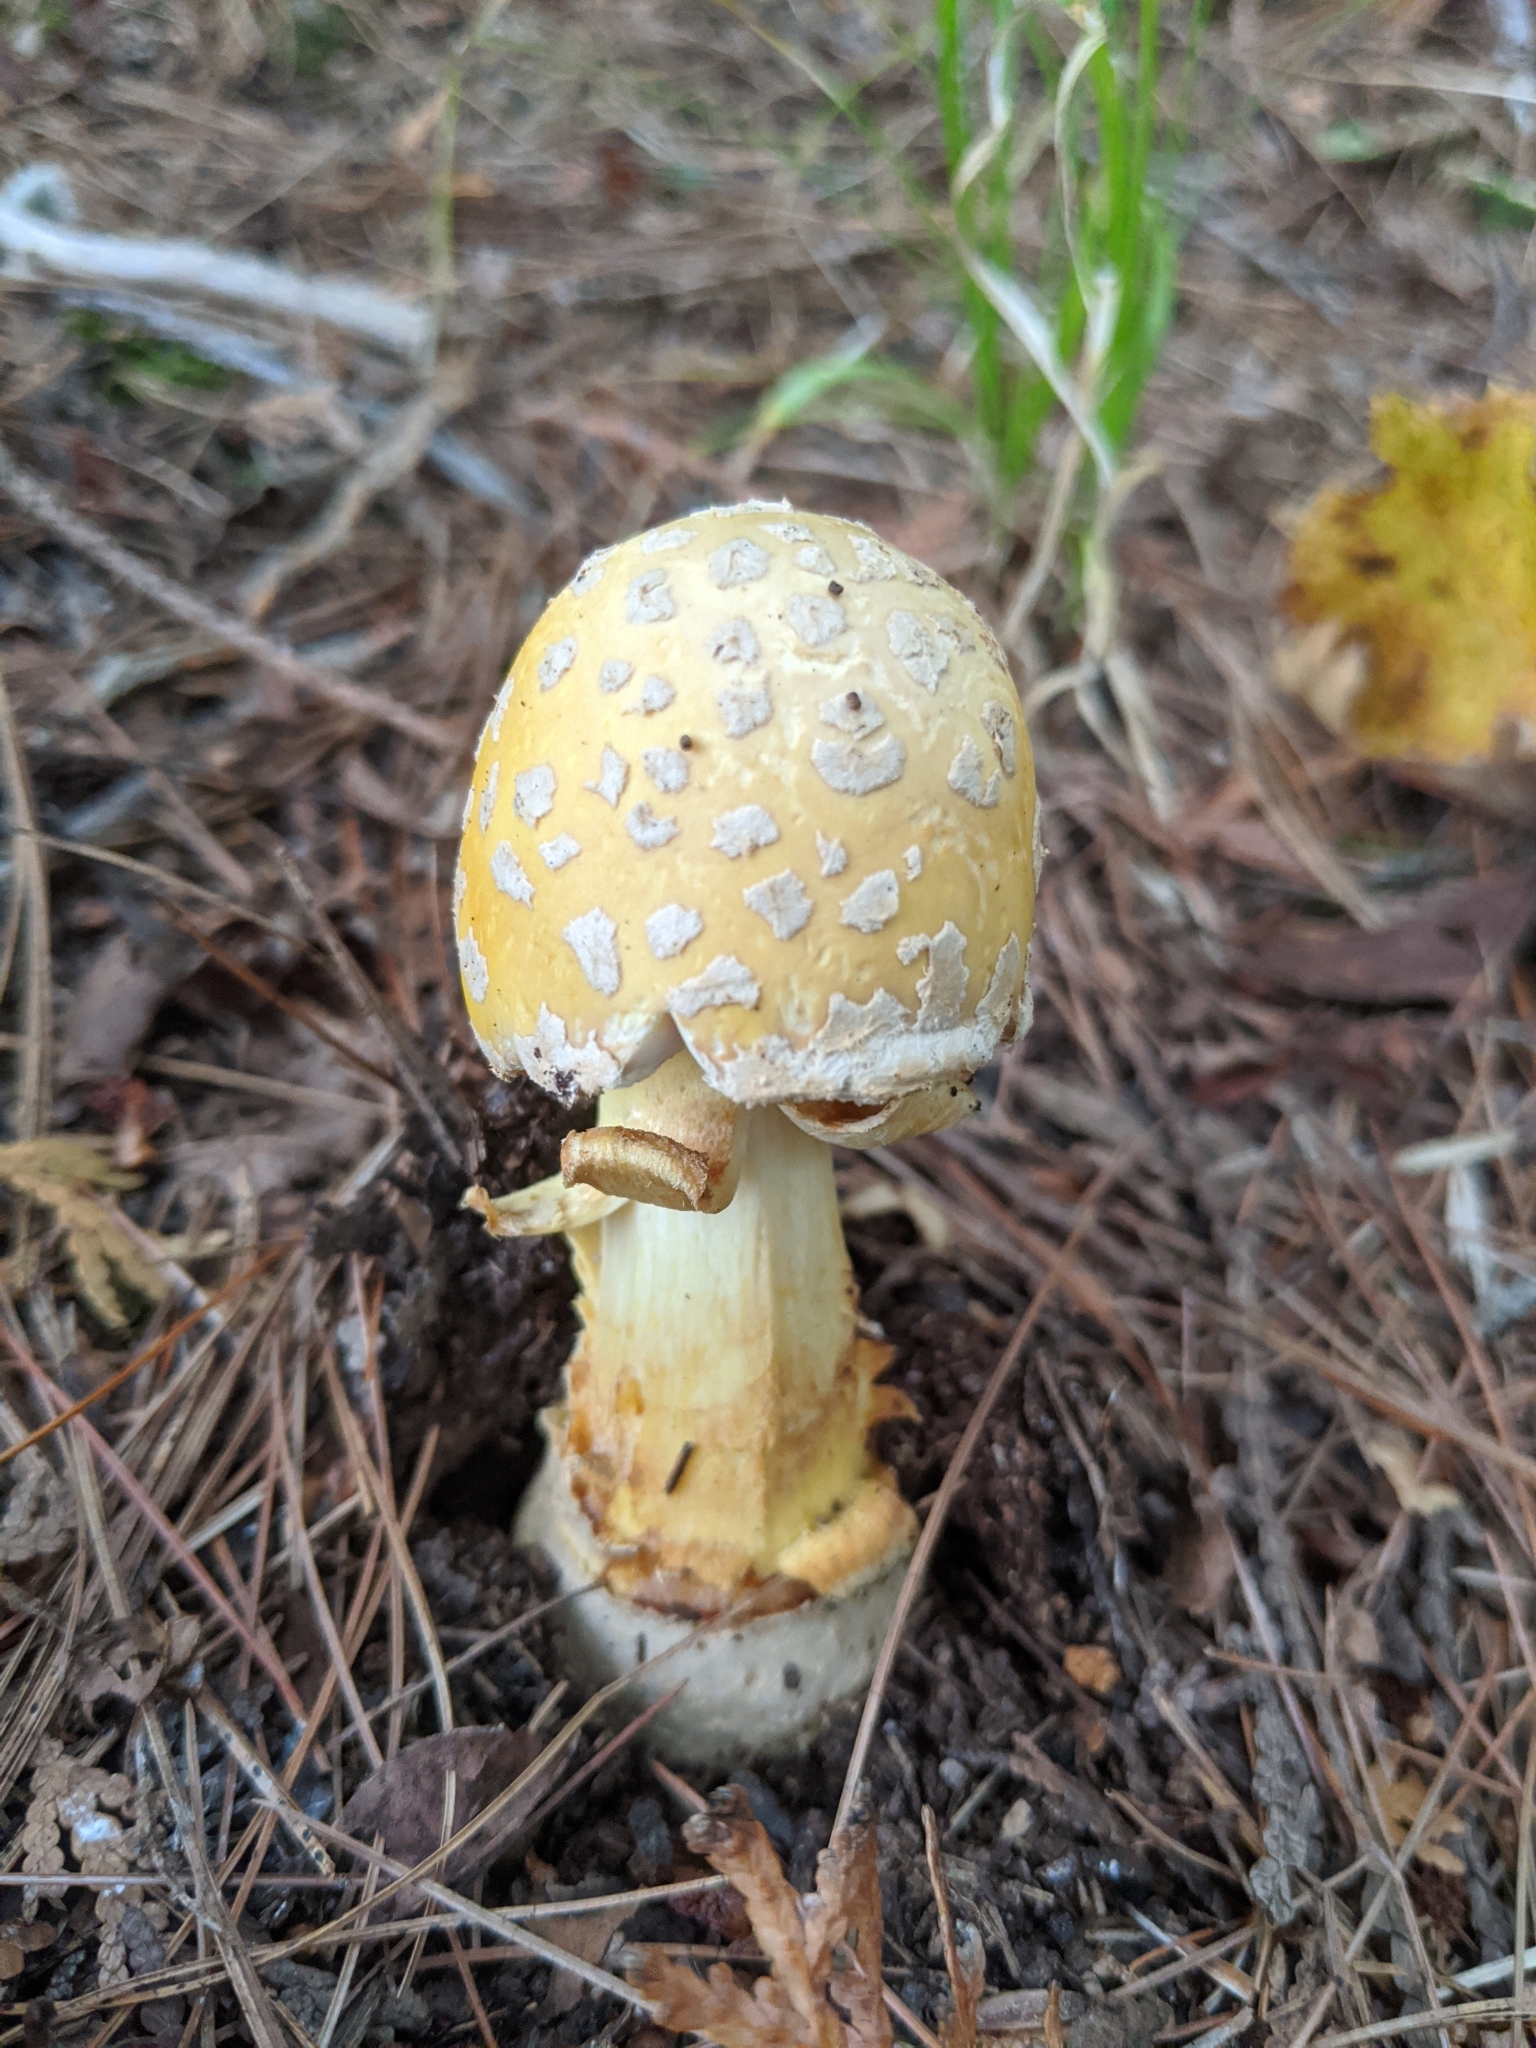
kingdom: Fungi
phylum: Basidiomycota
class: Agaricomycetes
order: Agaricales
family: Amanitaceae
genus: Amanita
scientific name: Amanita muscaria
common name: Fly agaric
